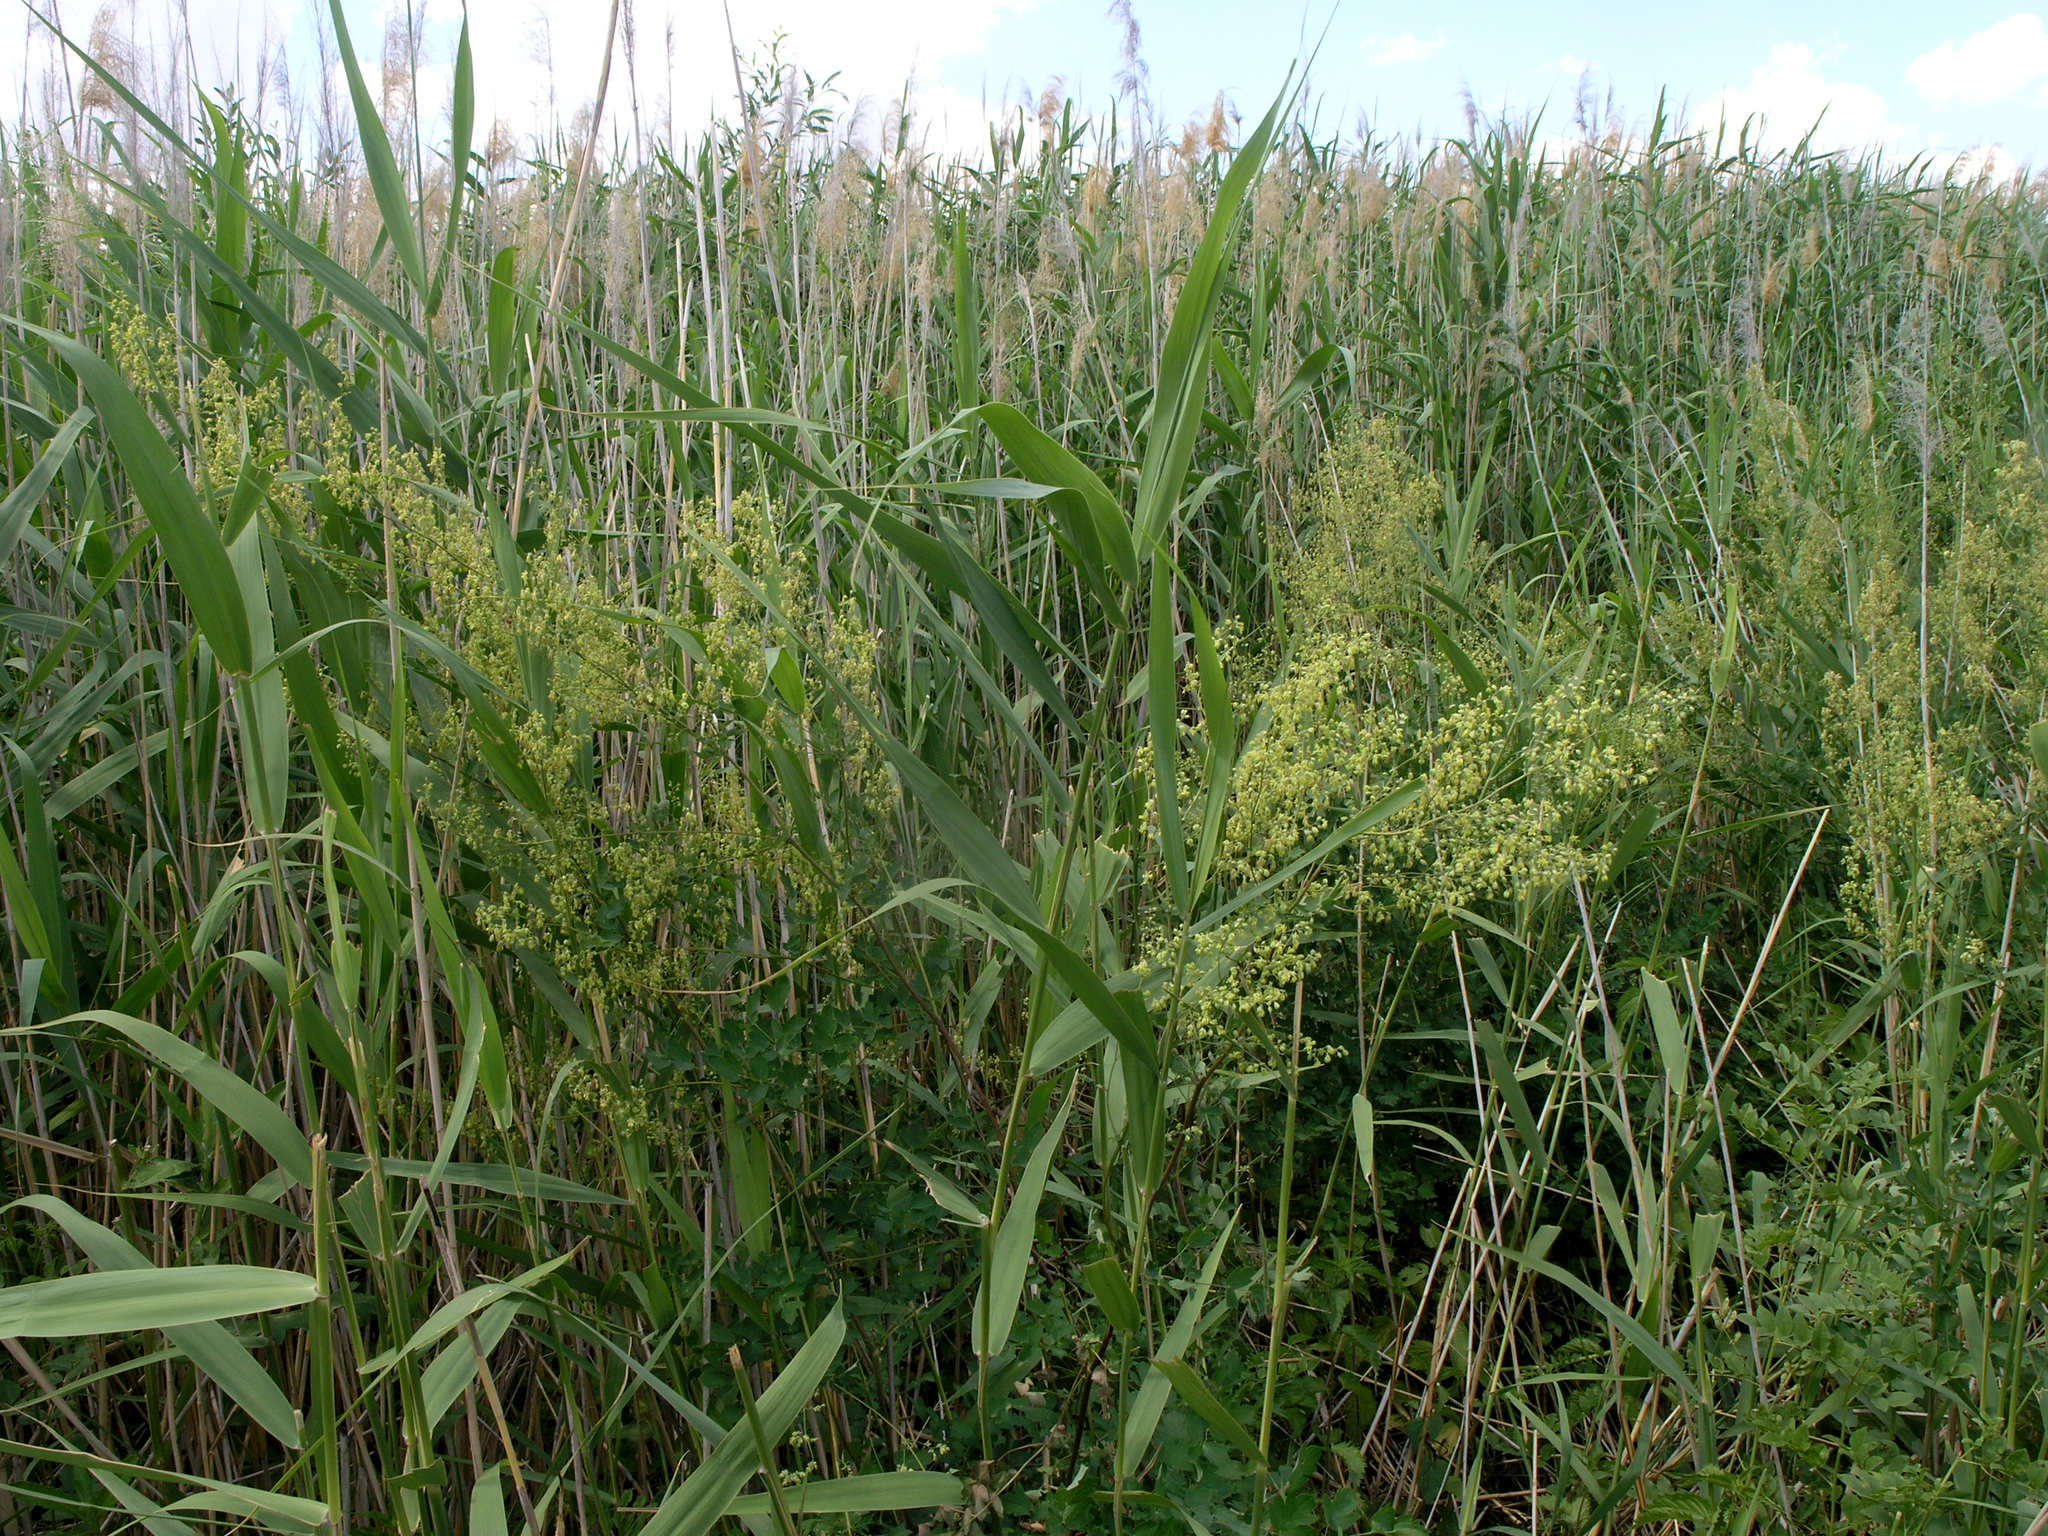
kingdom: Plantae
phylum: Tracheophyta
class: Magnoliopsida
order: Ranunculales
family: Ranunculaceae
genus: Thalictrum
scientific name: Thalictrum minus
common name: Lesser meadow-rue
